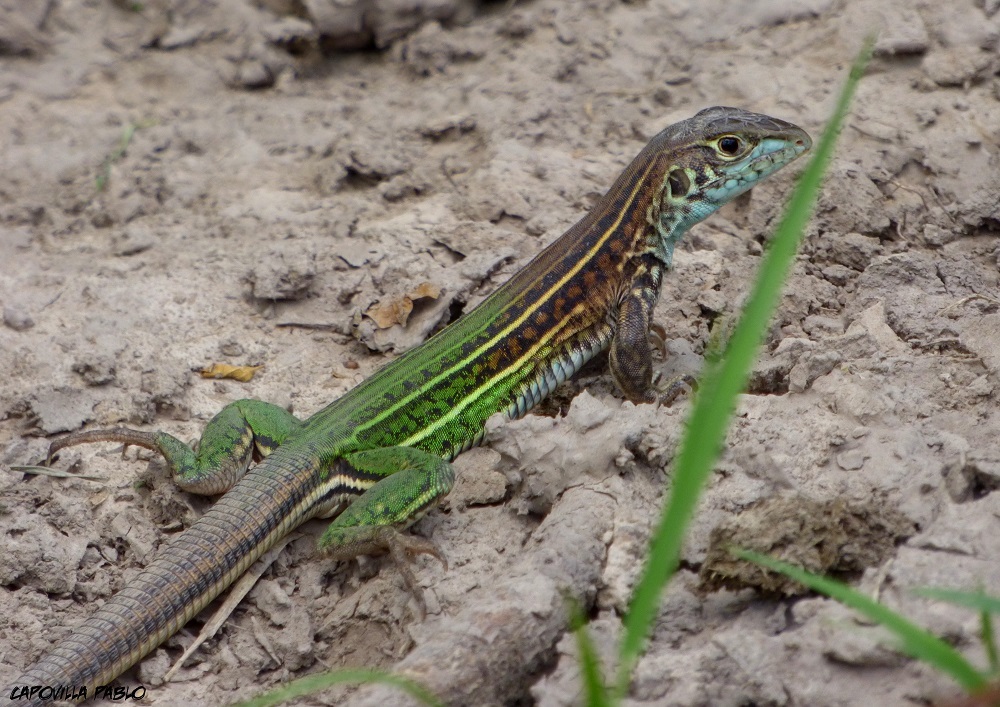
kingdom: Animalia
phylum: Chordata
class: Squamata
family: Teiidae
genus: Teius
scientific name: Teius teyou
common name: Four-toed tegu
